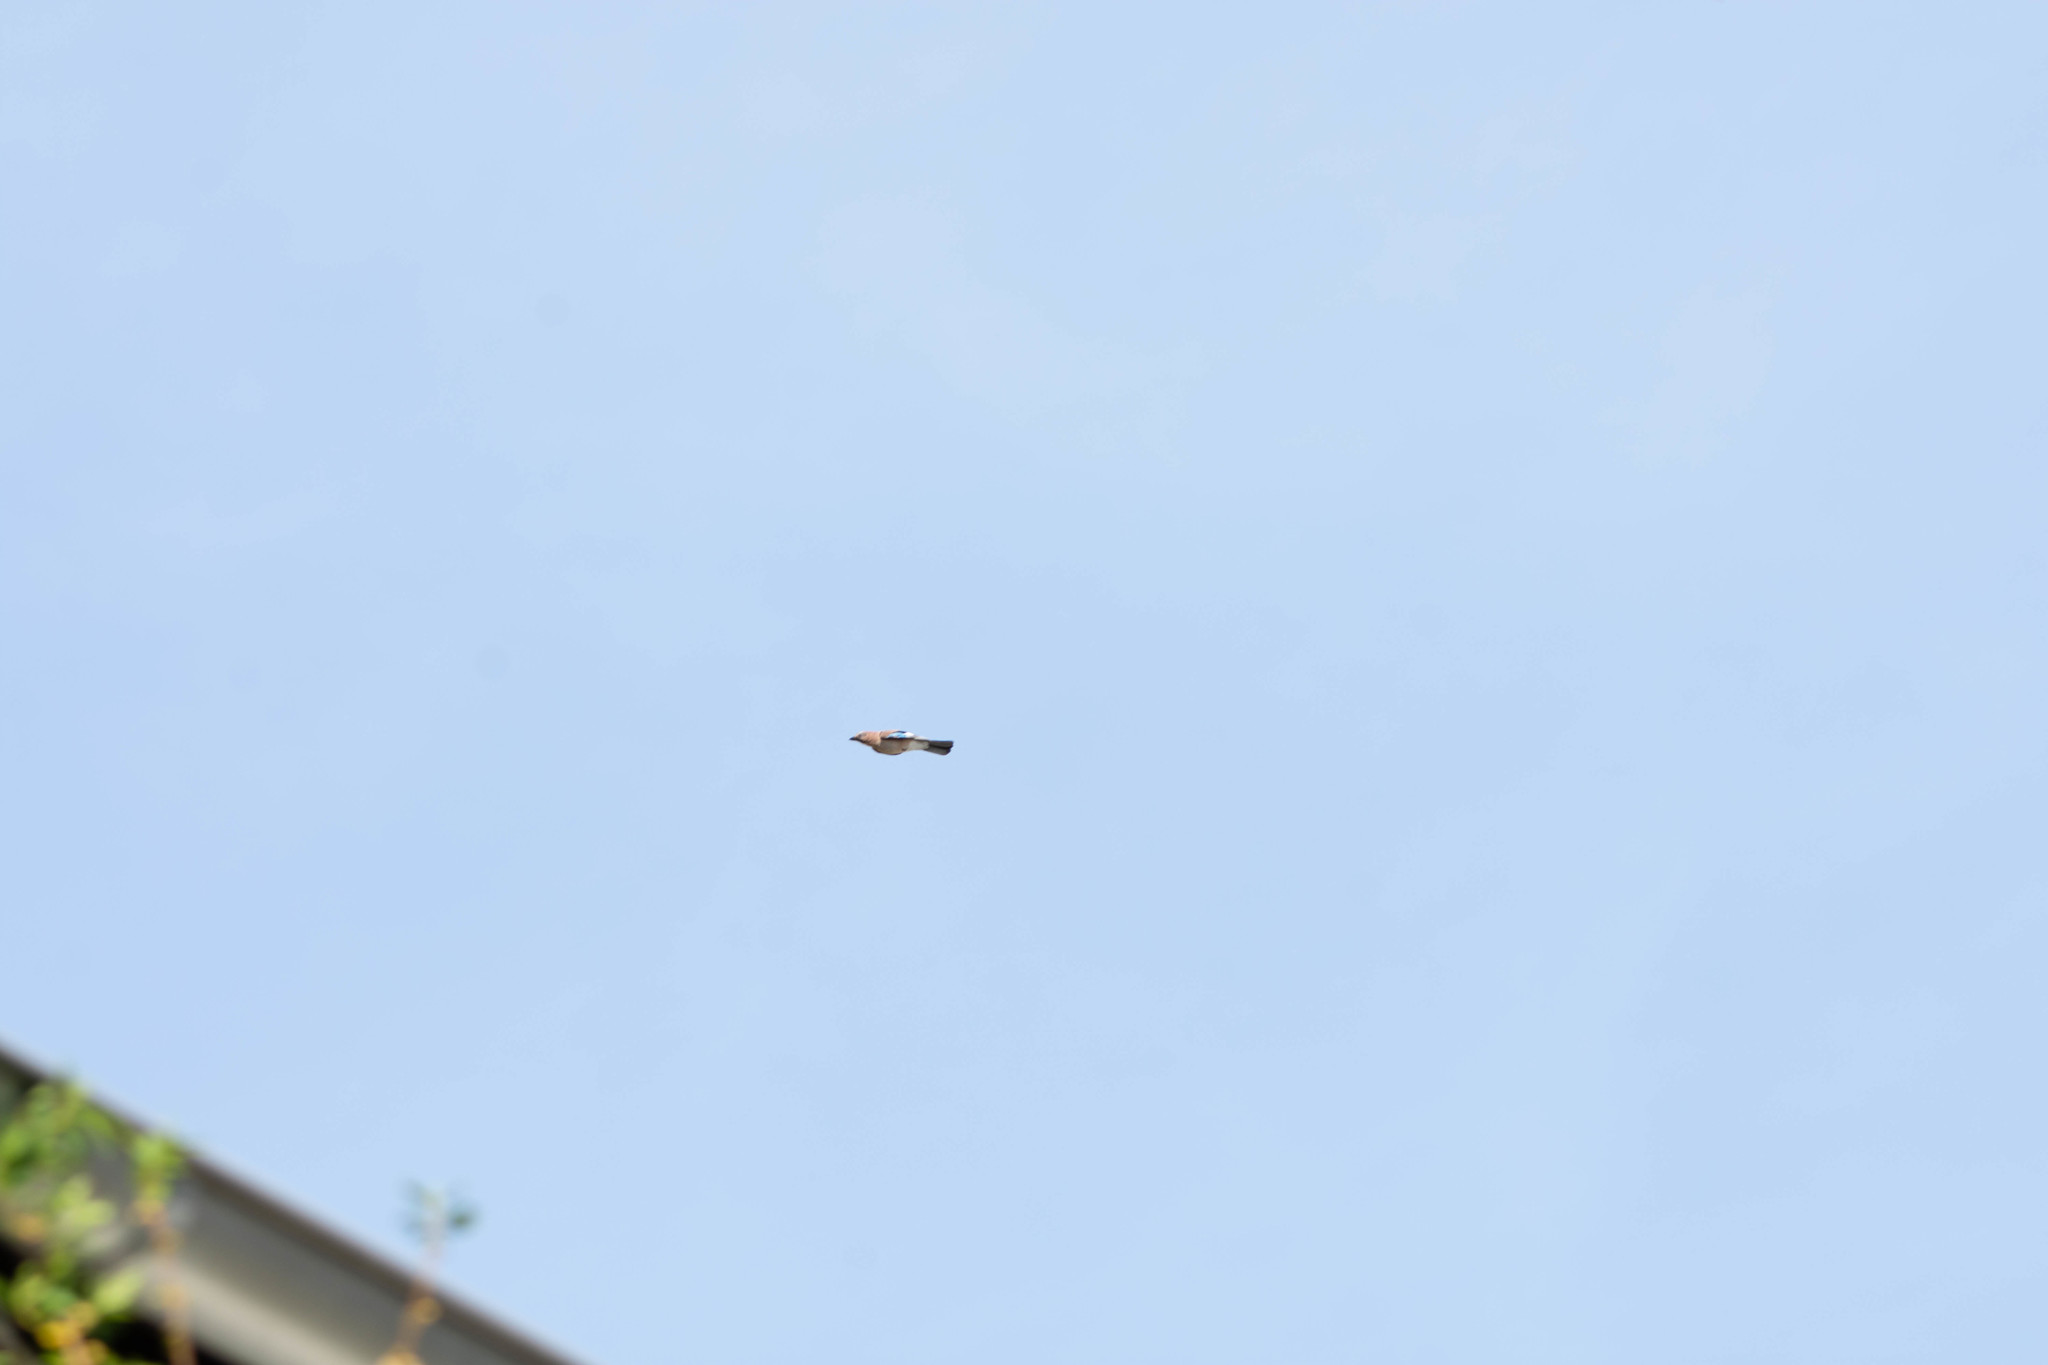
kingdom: Animalia
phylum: Chordata
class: Aves
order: Passeriformes
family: Corvidae
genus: Garrulus
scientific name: Garrulus glandarius
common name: Eurasian jay
